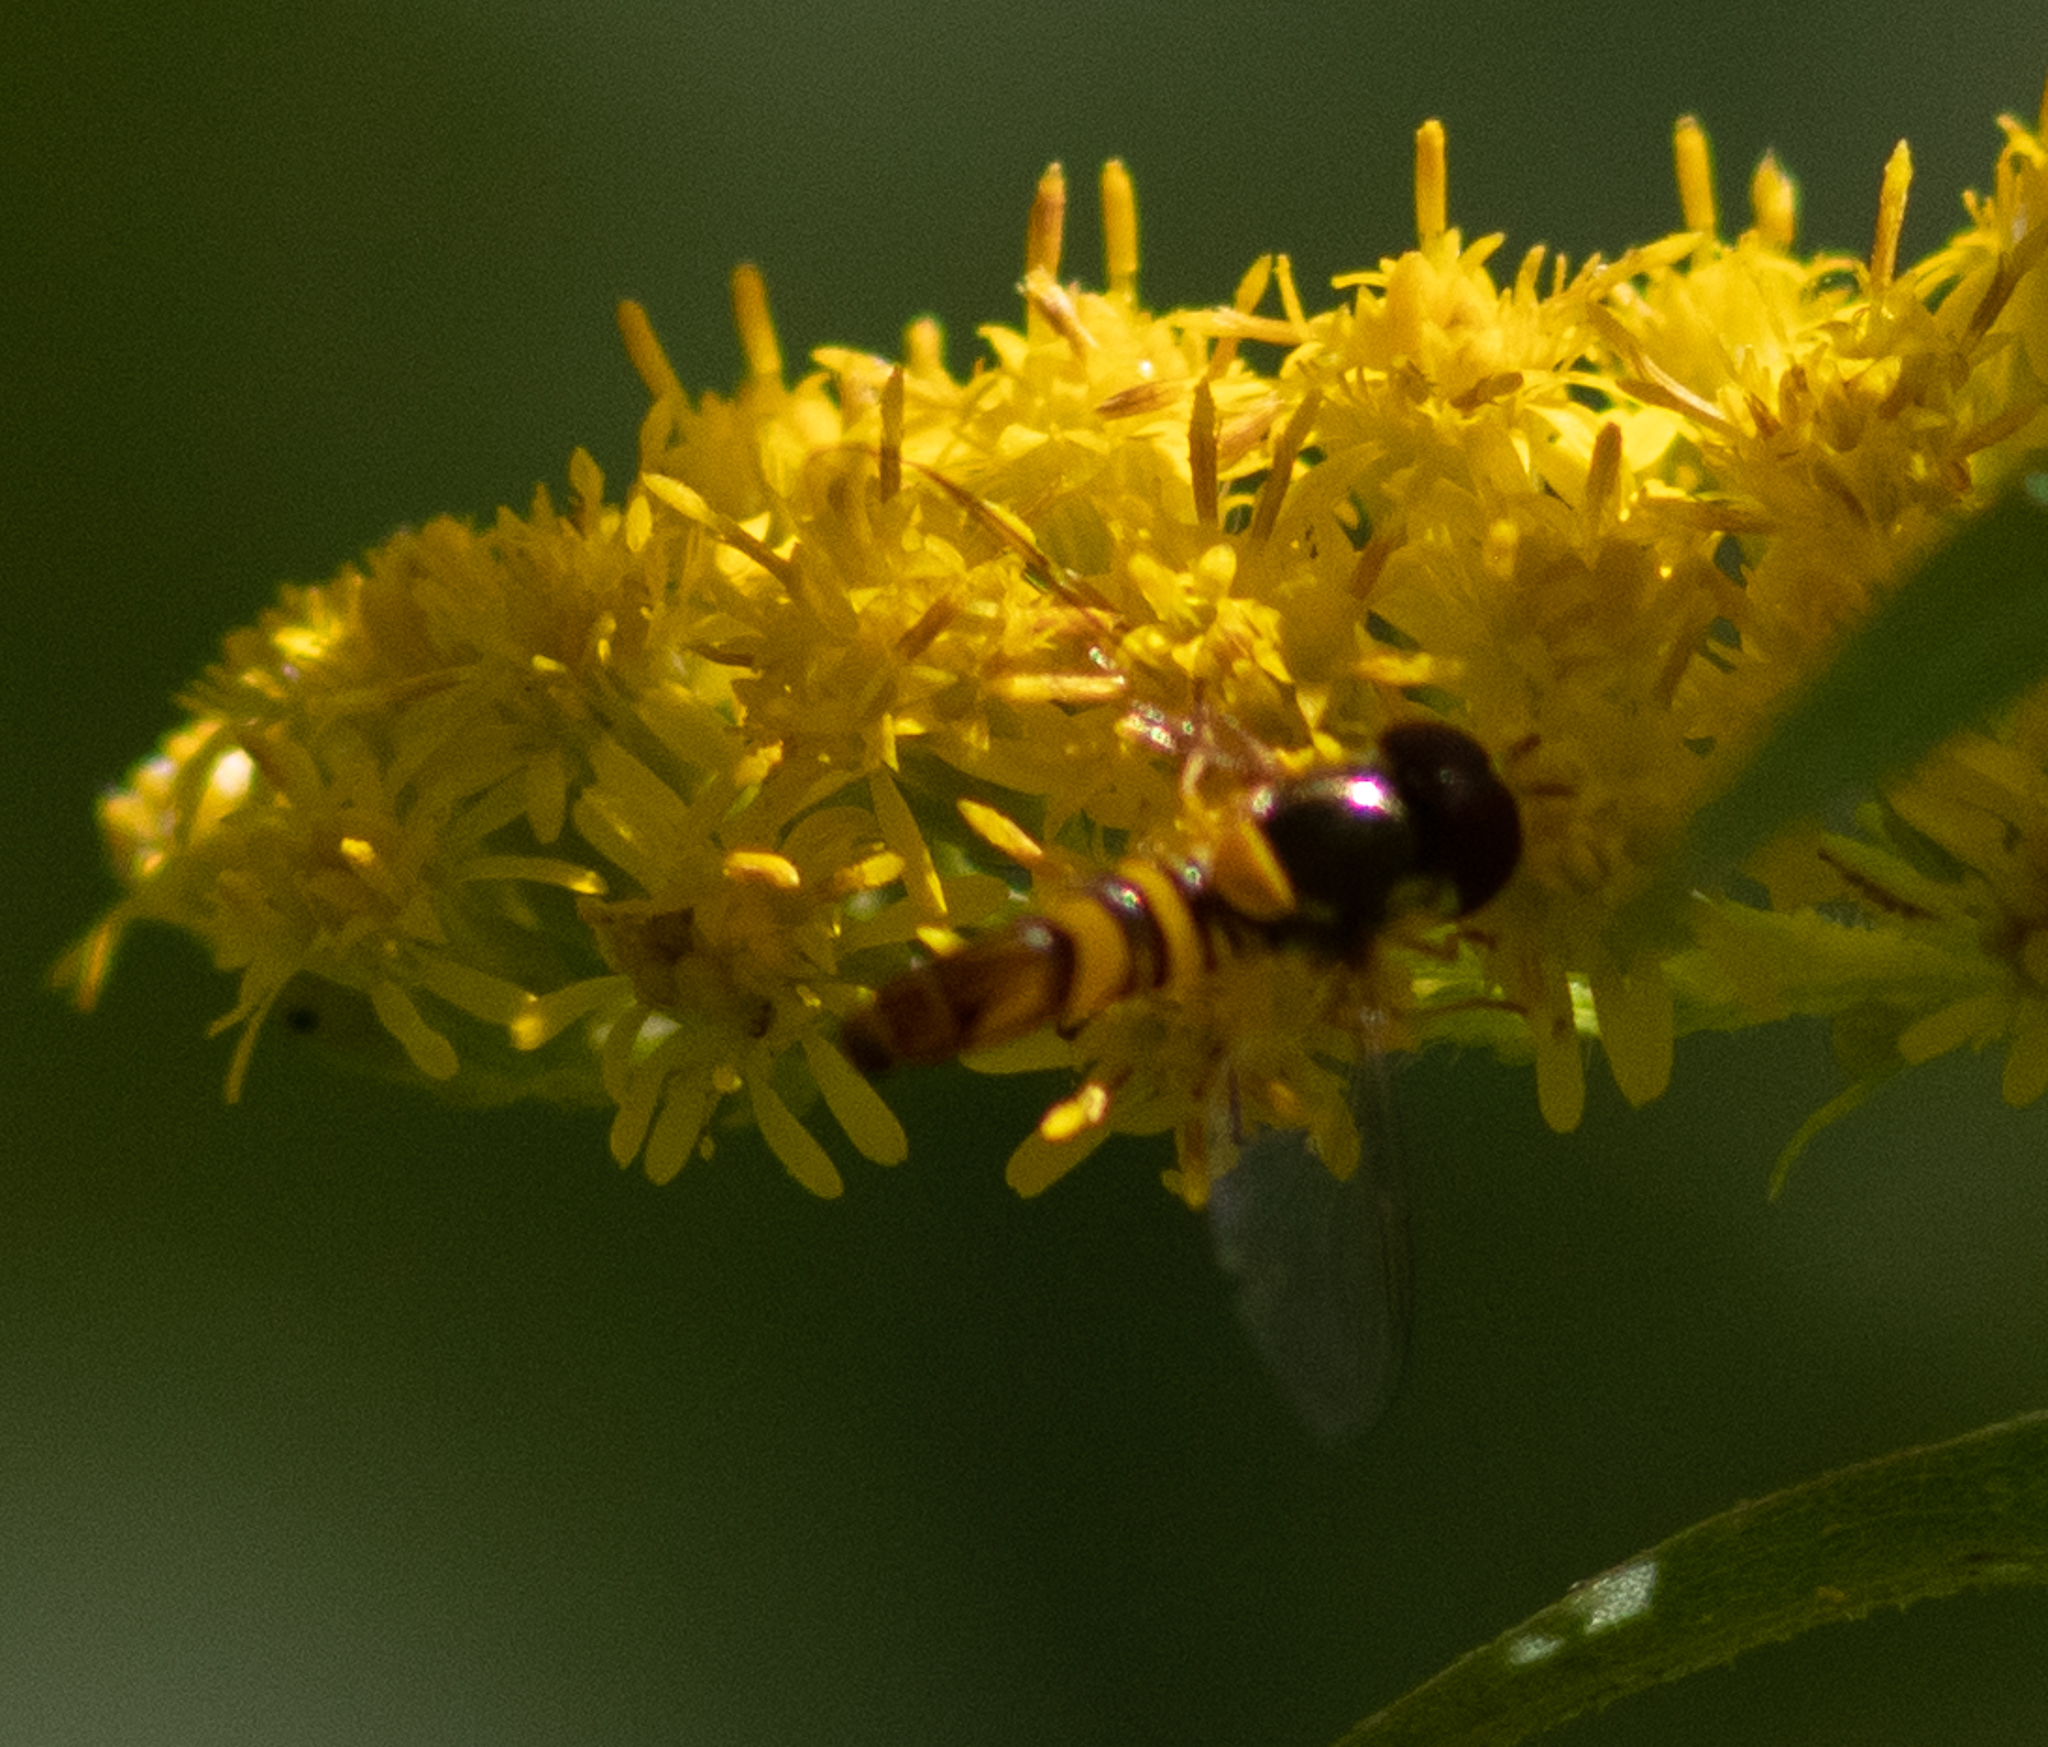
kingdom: Animalia
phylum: Arthropoda
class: Insecta
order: Diptera
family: Syrphidae
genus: Allograpta
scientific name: Allograpta obliqua
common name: Common oblique syrphid
